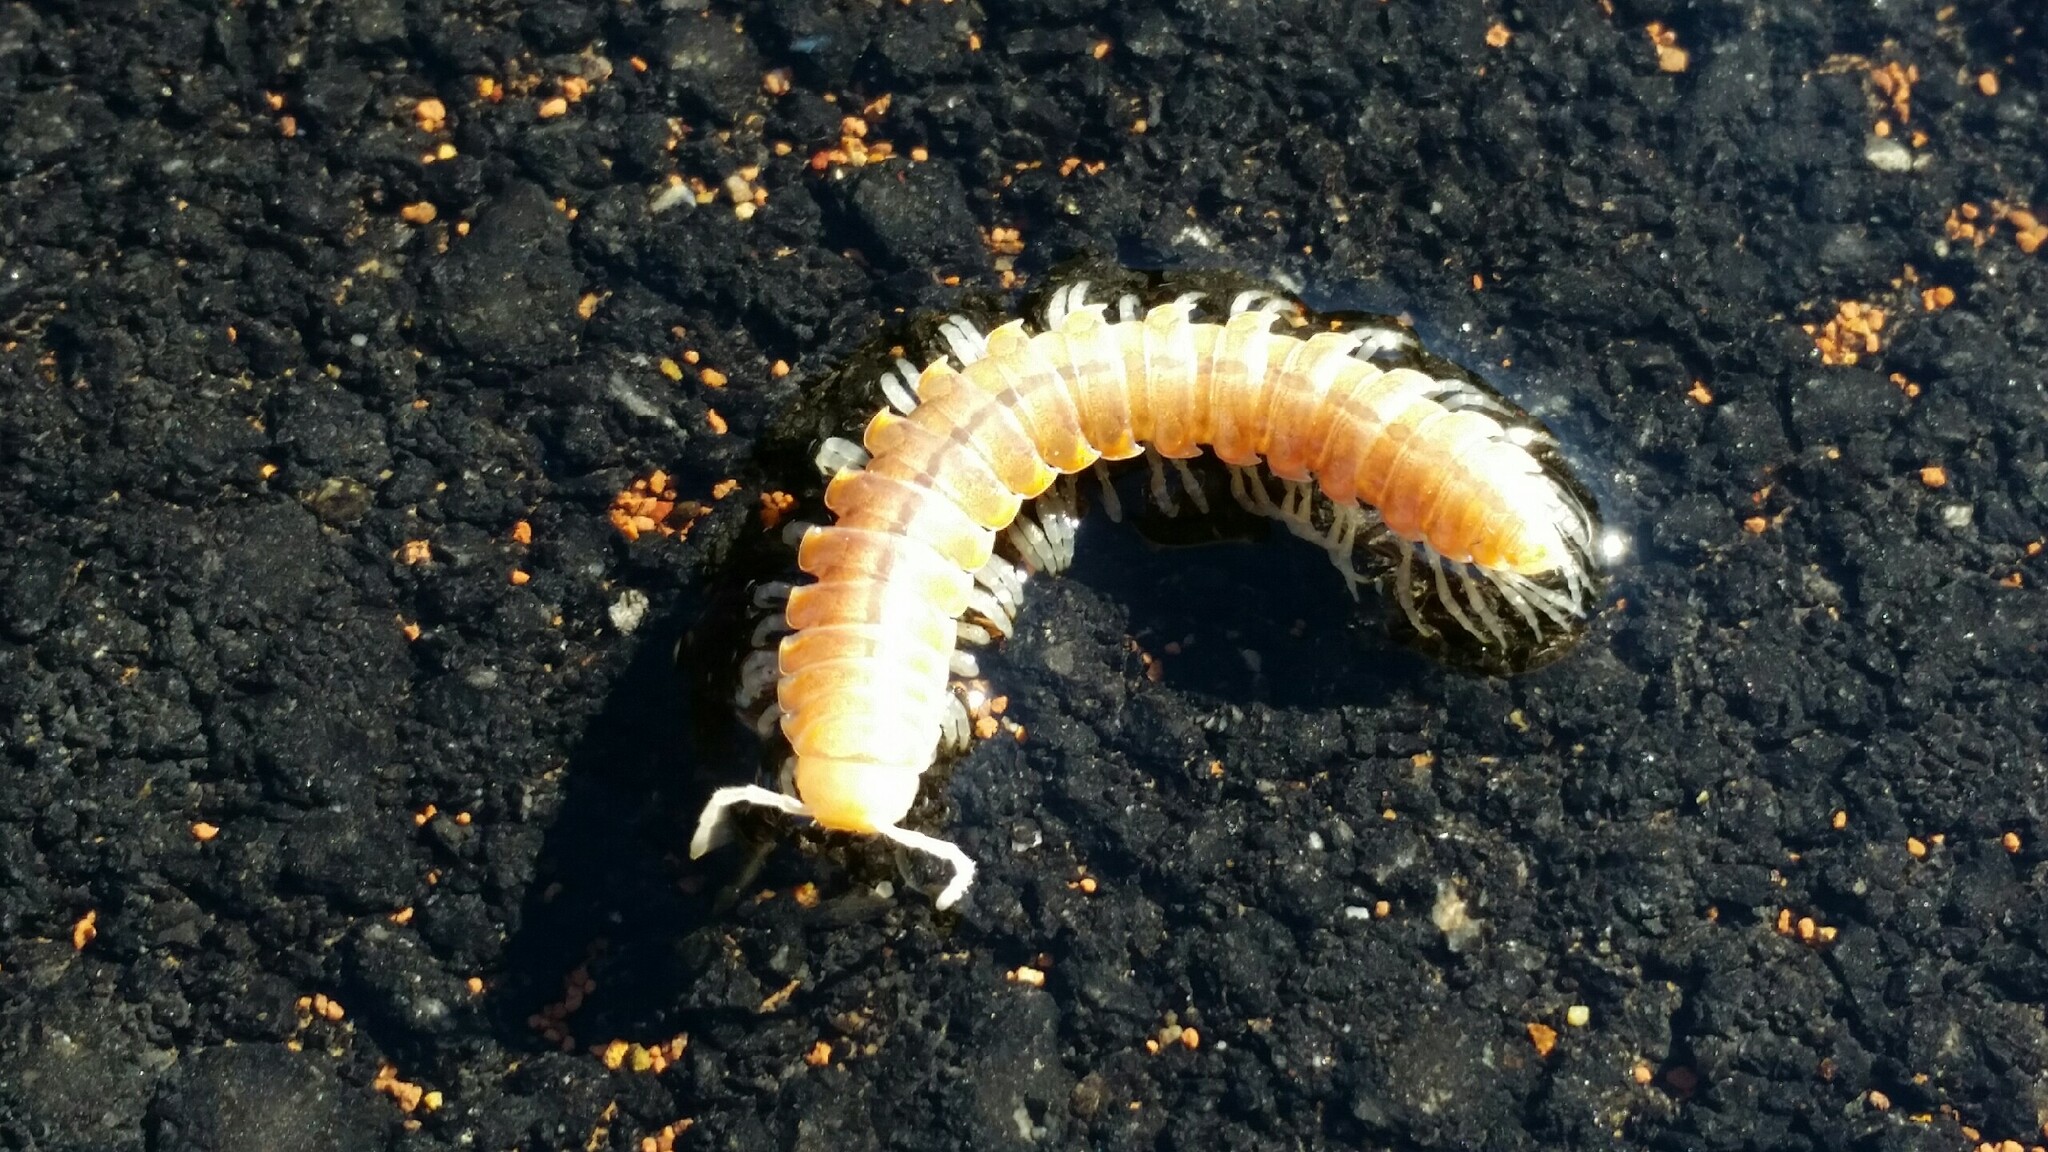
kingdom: Animalia
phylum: Arthropoda
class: Diplopoda
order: Polydesmida
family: Xystodesmidae
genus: Xystocheir
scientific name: Xystocheir dissecta
